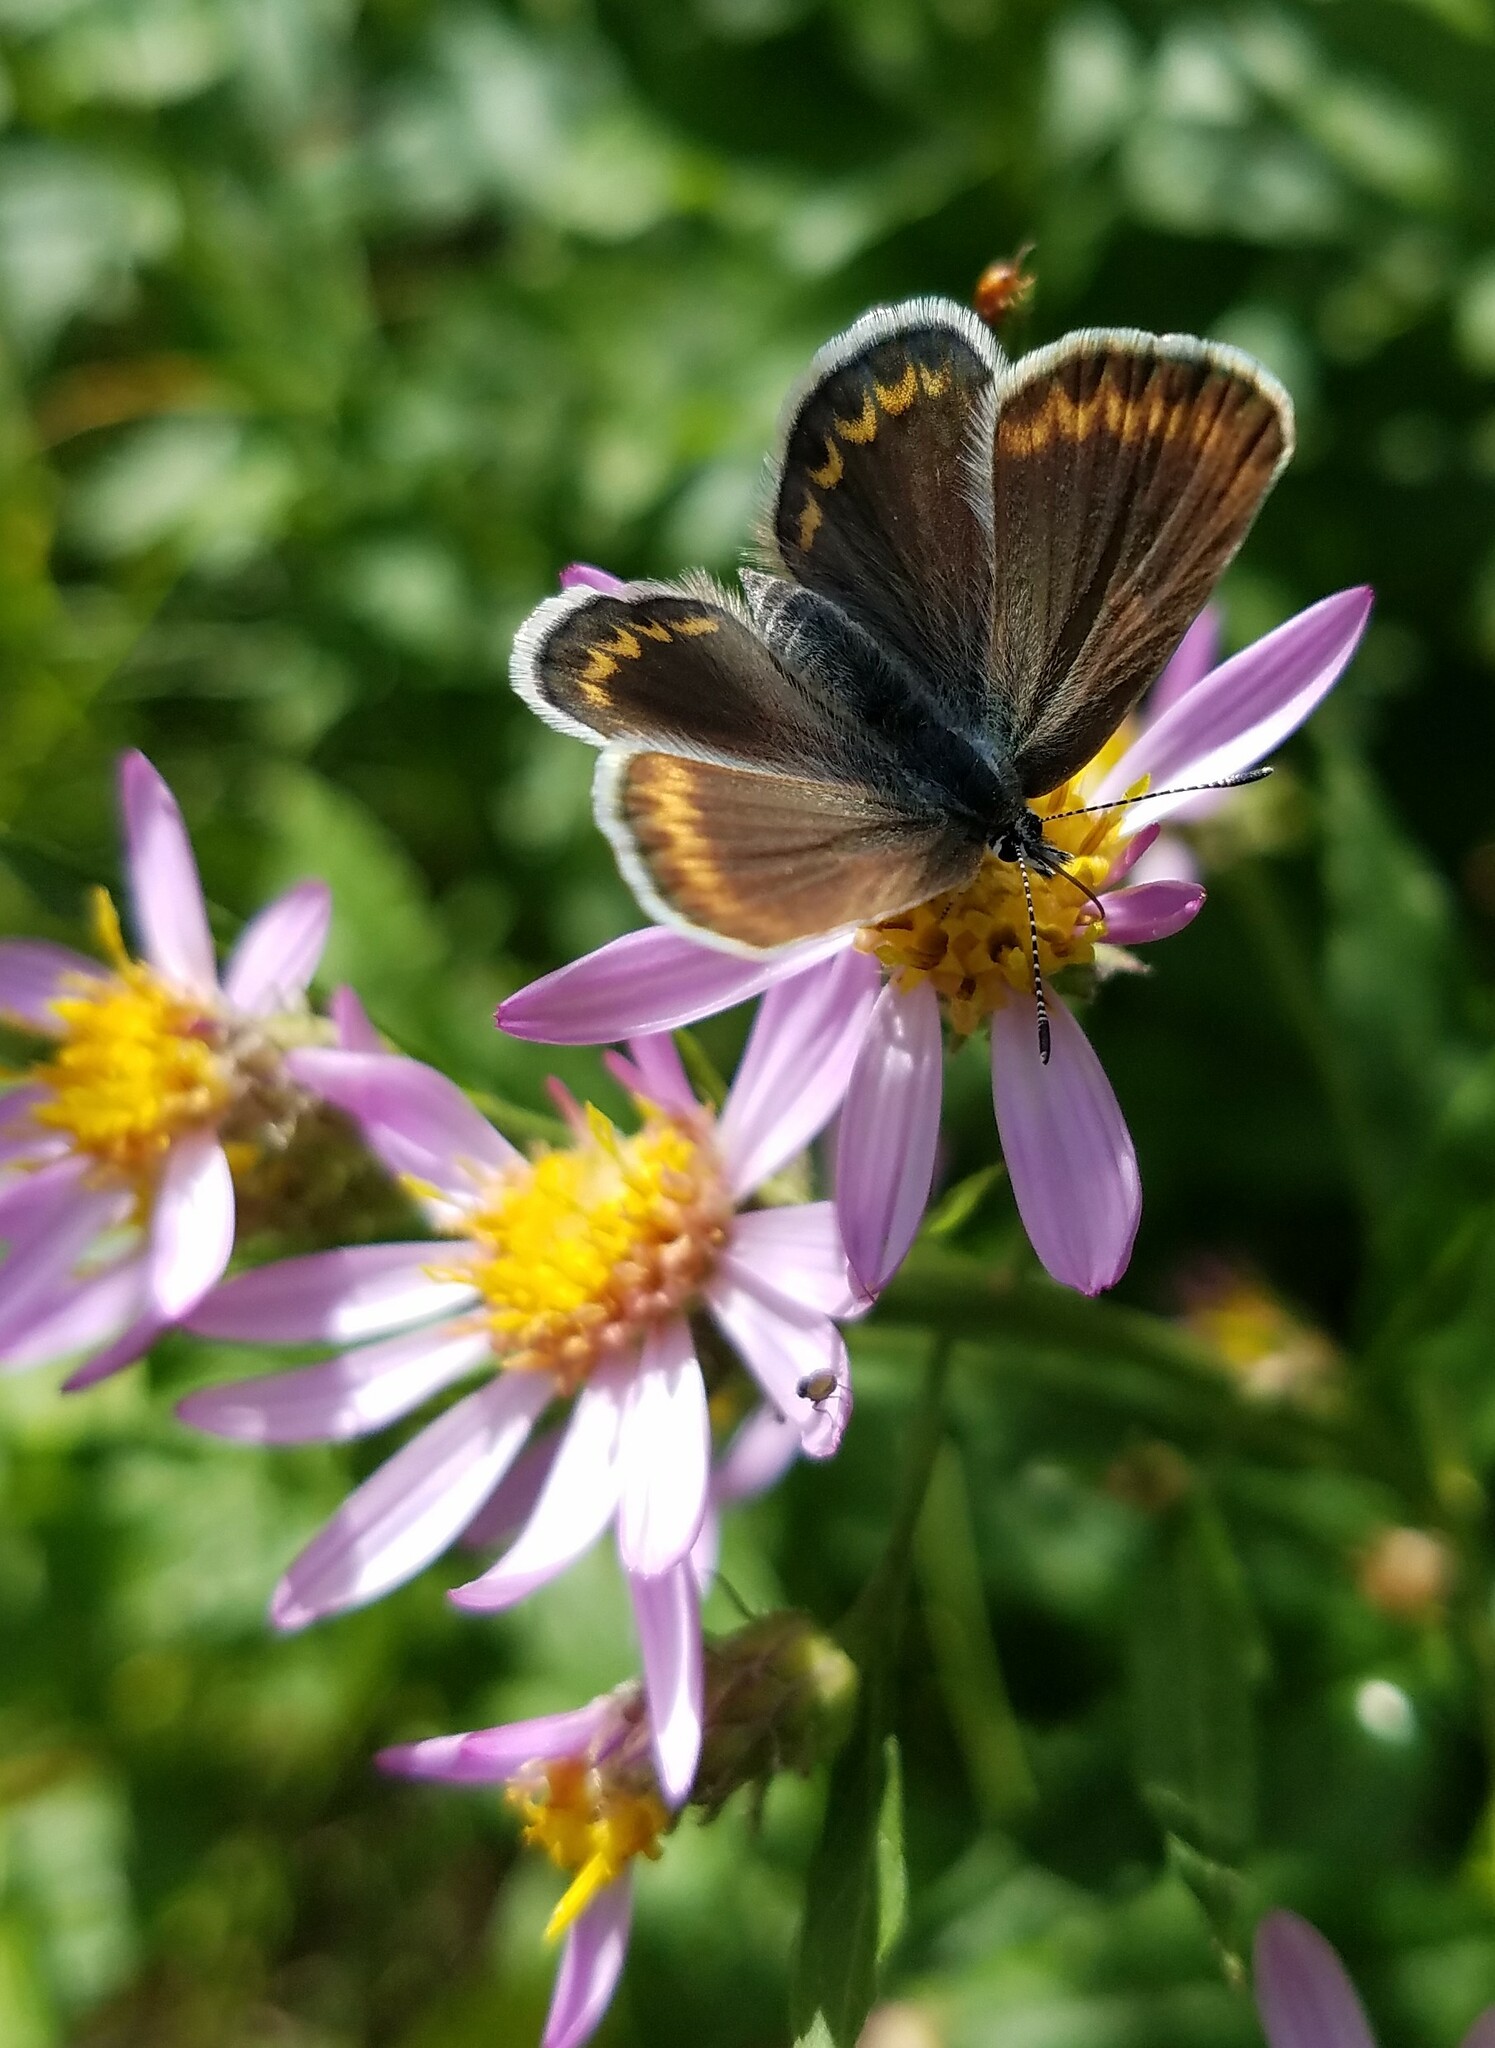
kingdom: Animalia
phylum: Arthropoda
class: Insecta
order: Lepidoptera
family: Lycaenidae
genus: Lycaeides
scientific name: Lycaeides anna
